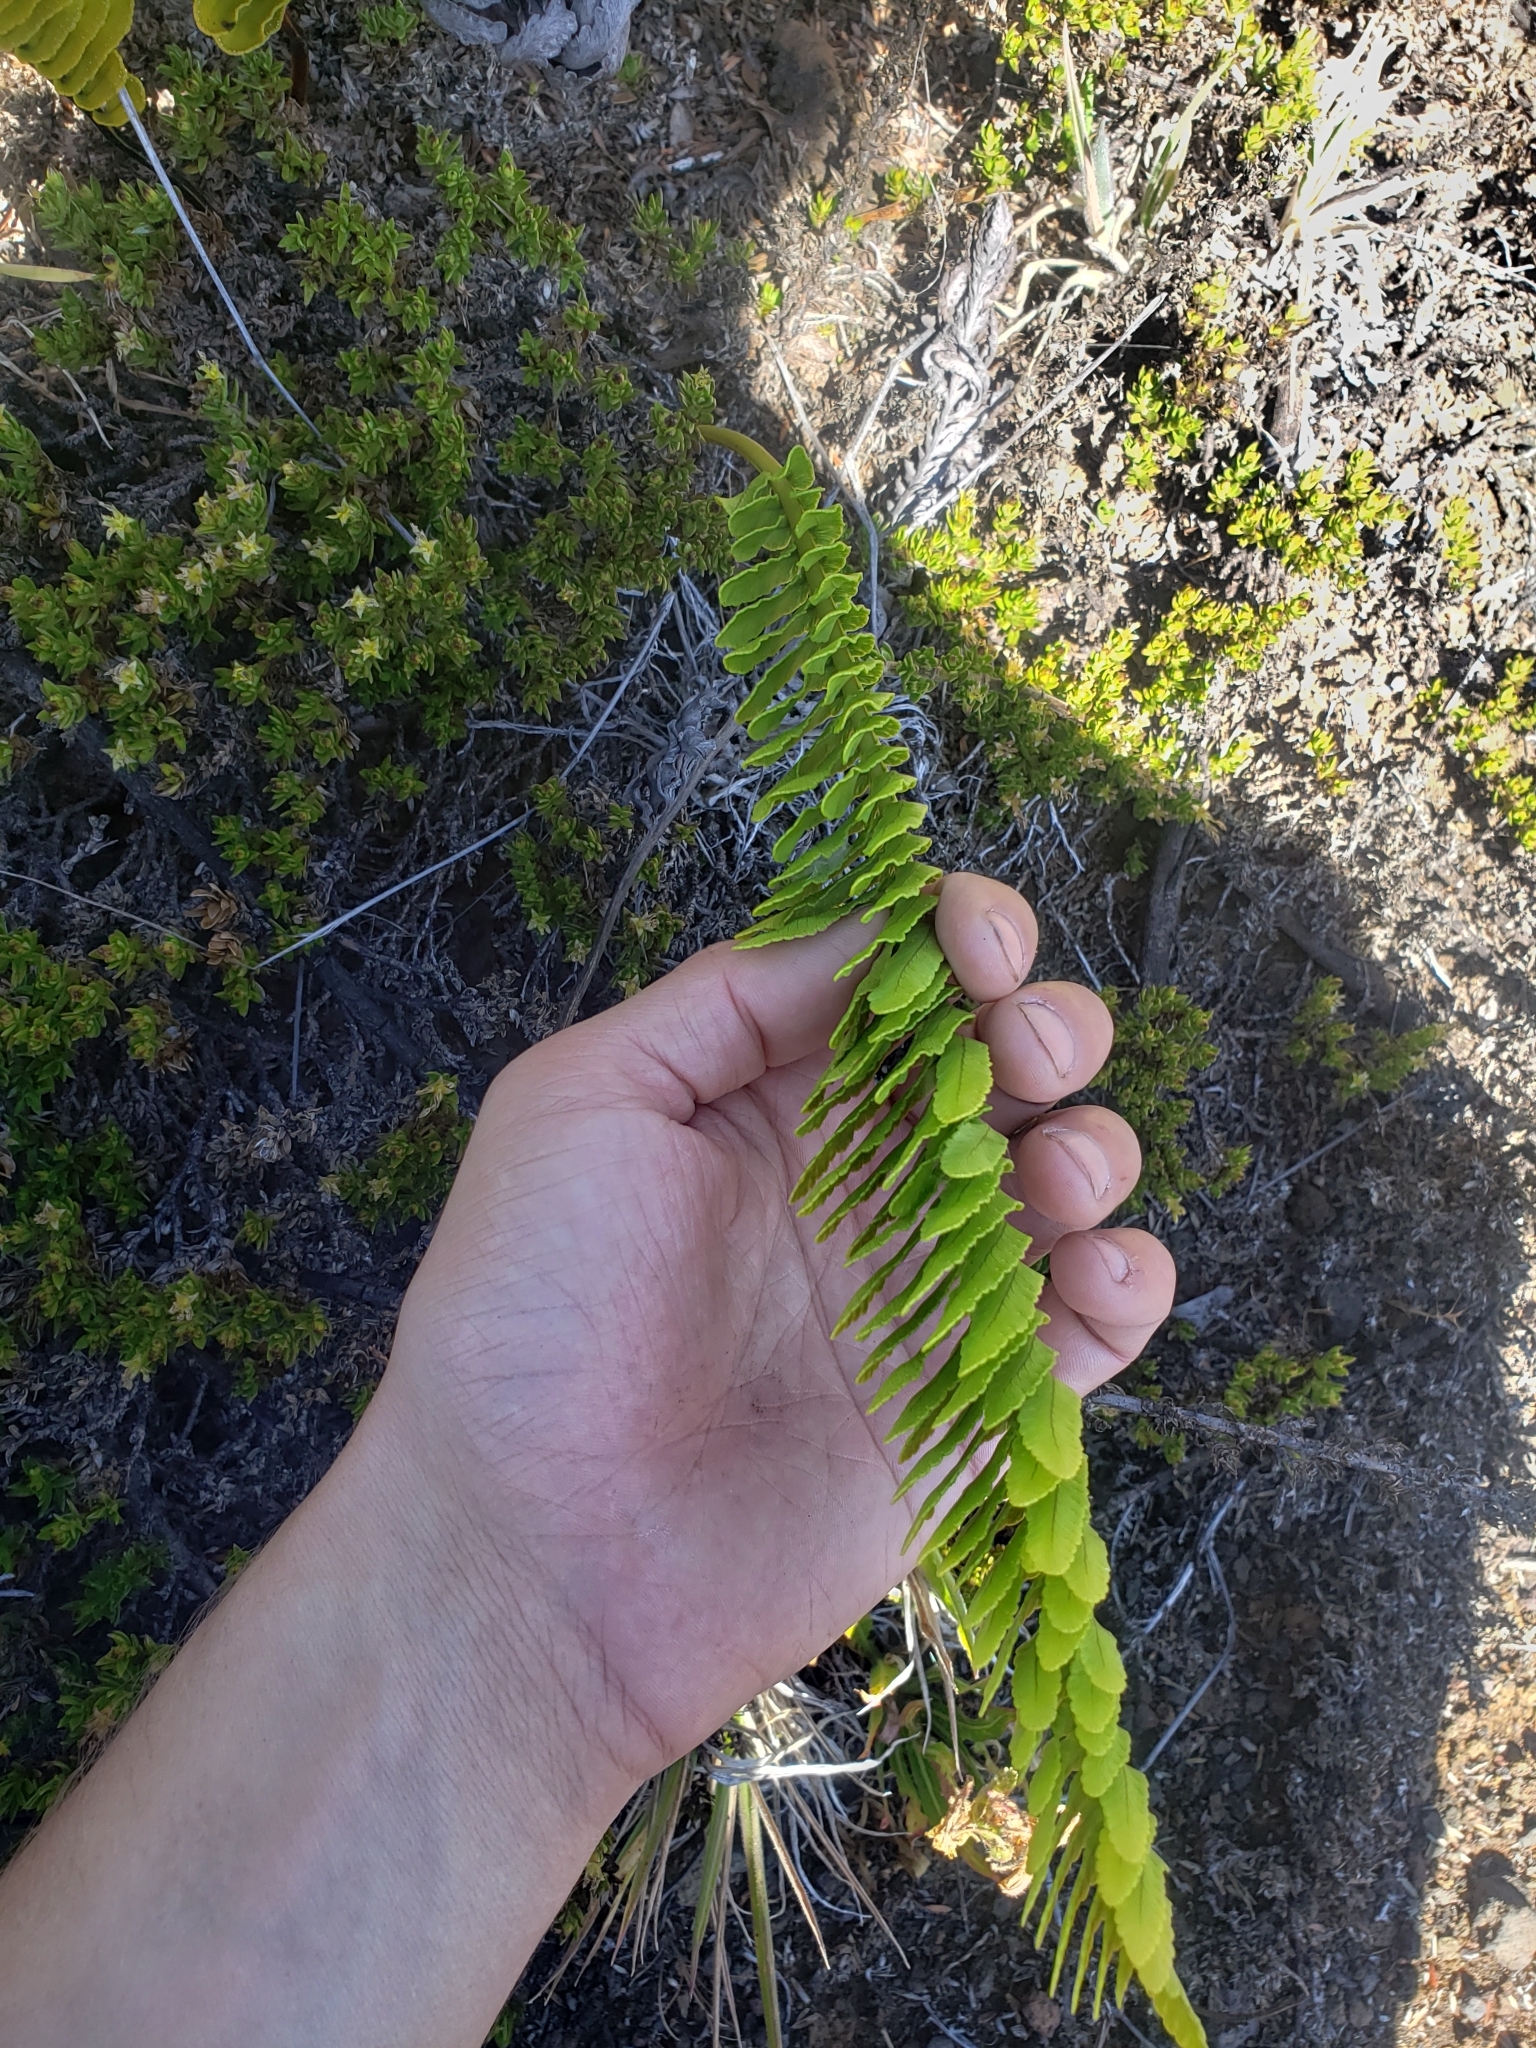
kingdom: Plantae
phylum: Tracheophyta
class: Polypodiopsida
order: Polypodiales
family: Polypodiaceae
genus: Polypodium
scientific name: Polypodium pellucidum
